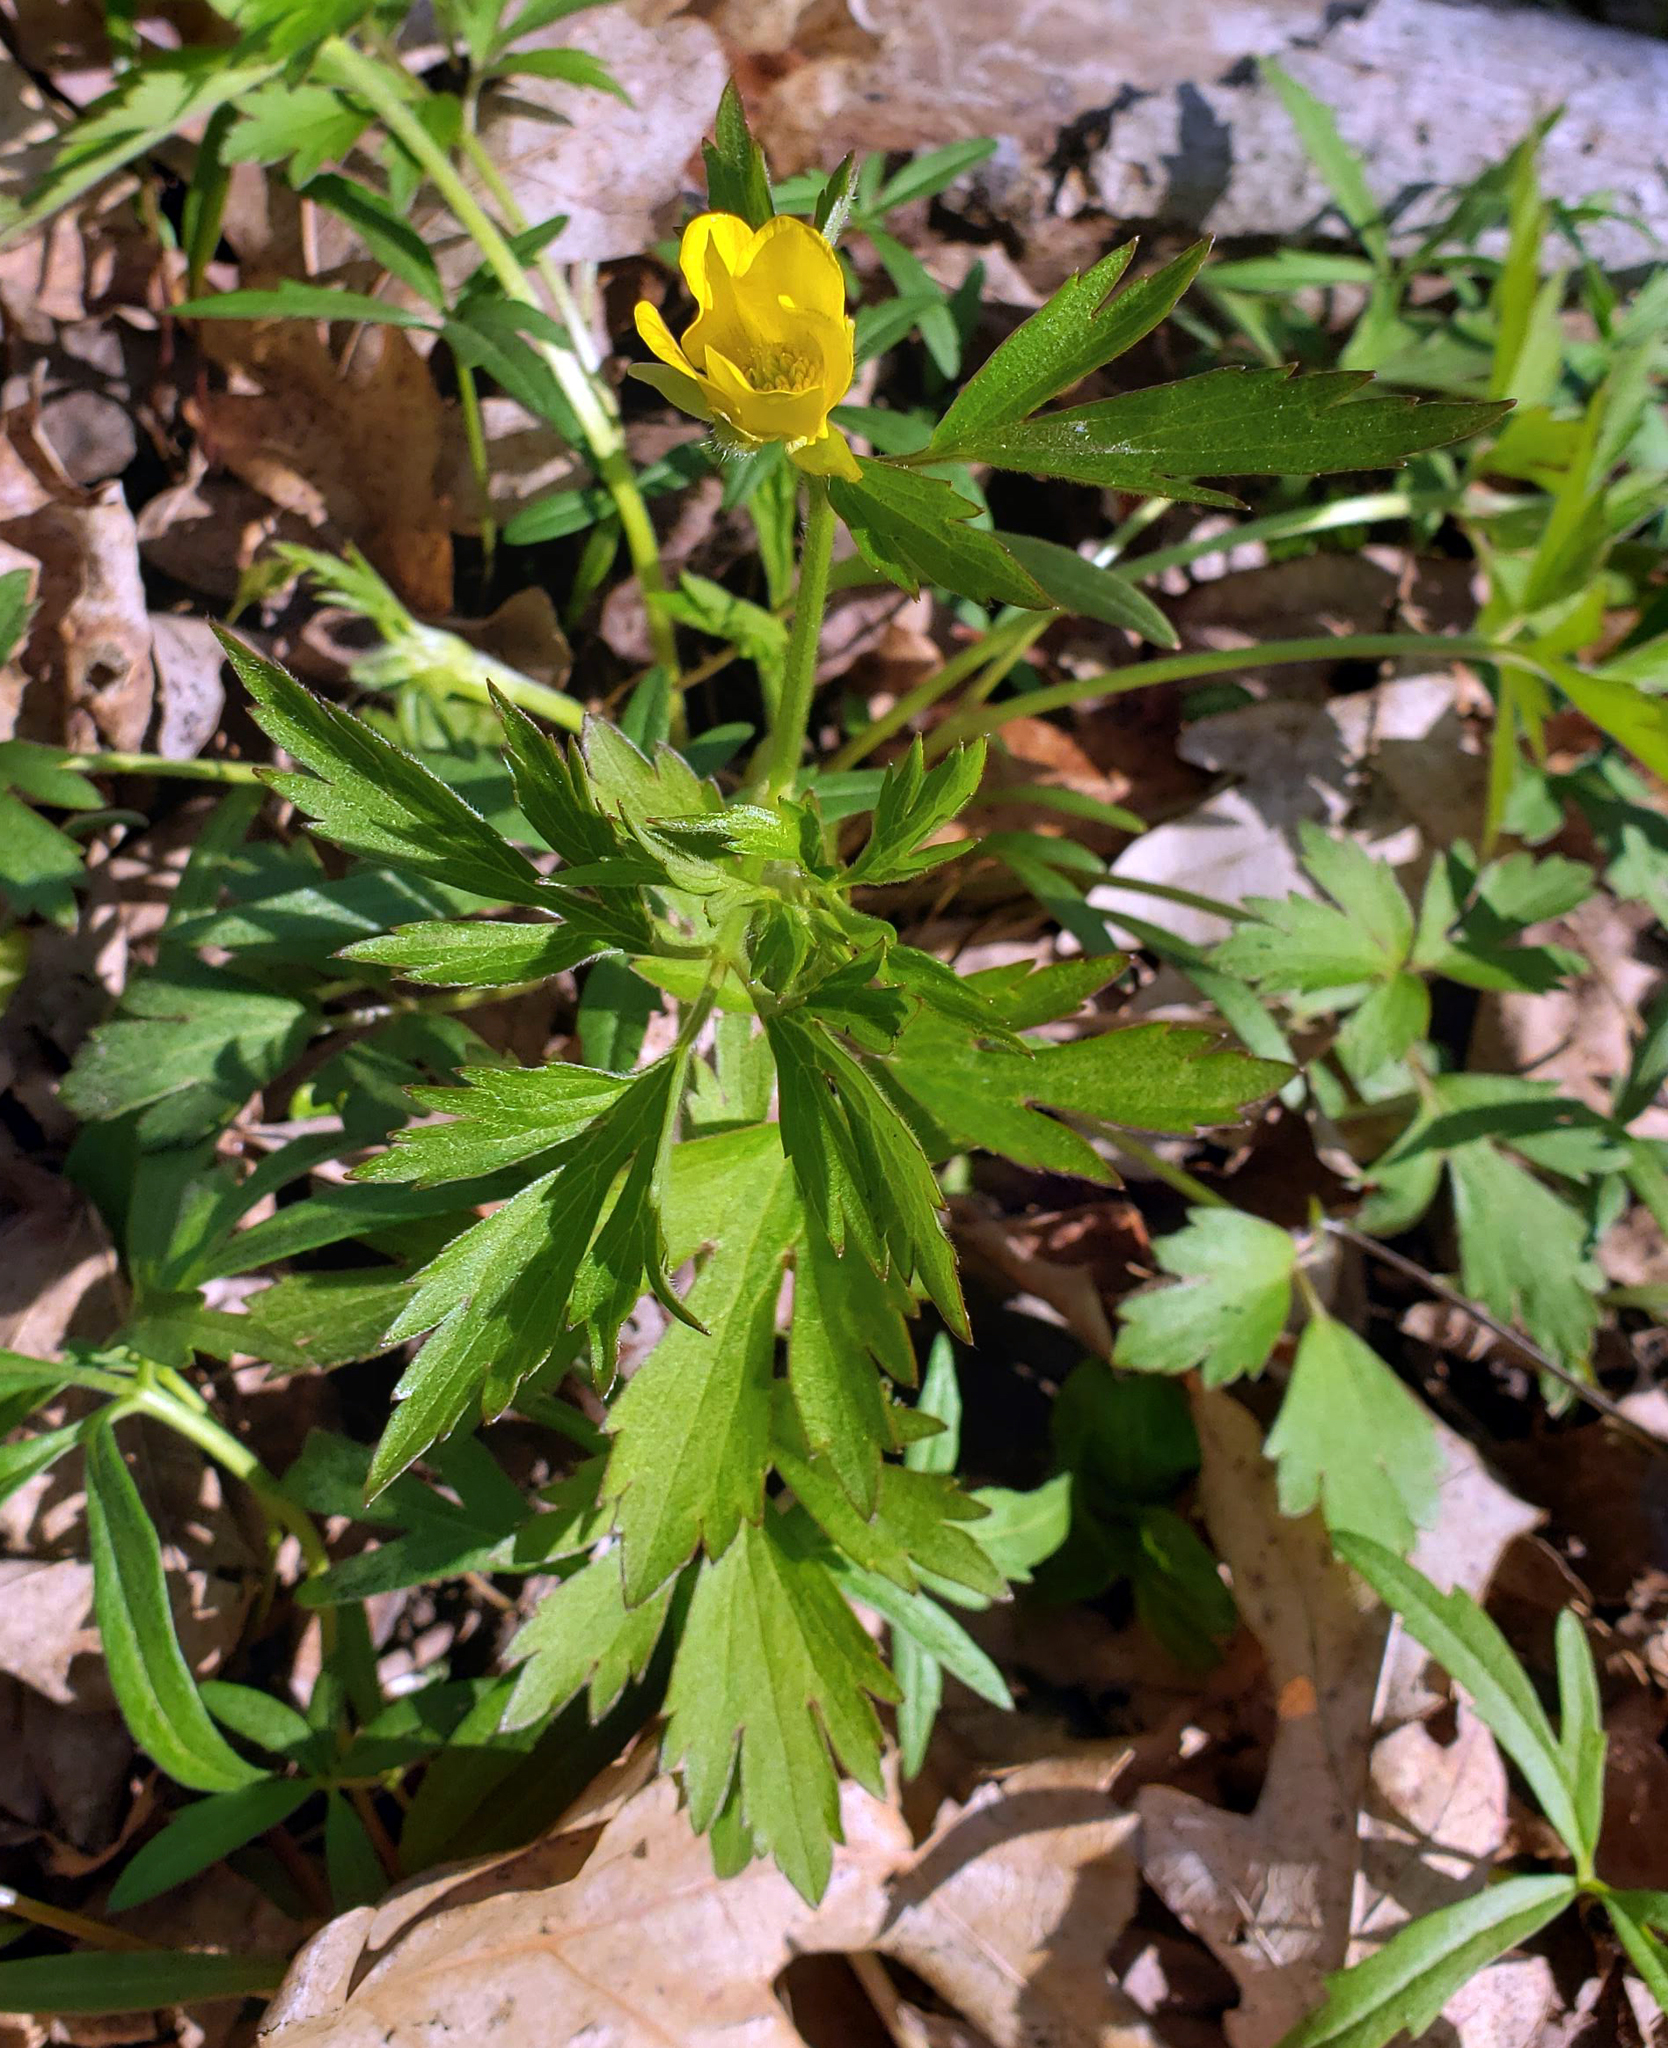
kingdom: Plantae
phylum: Tracheophyta
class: Magnoliopsida
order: Ranunculales
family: Ranunculaceae
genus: Ranunculus
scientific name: Ranunculus hispidus
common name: Bristly buttercup
